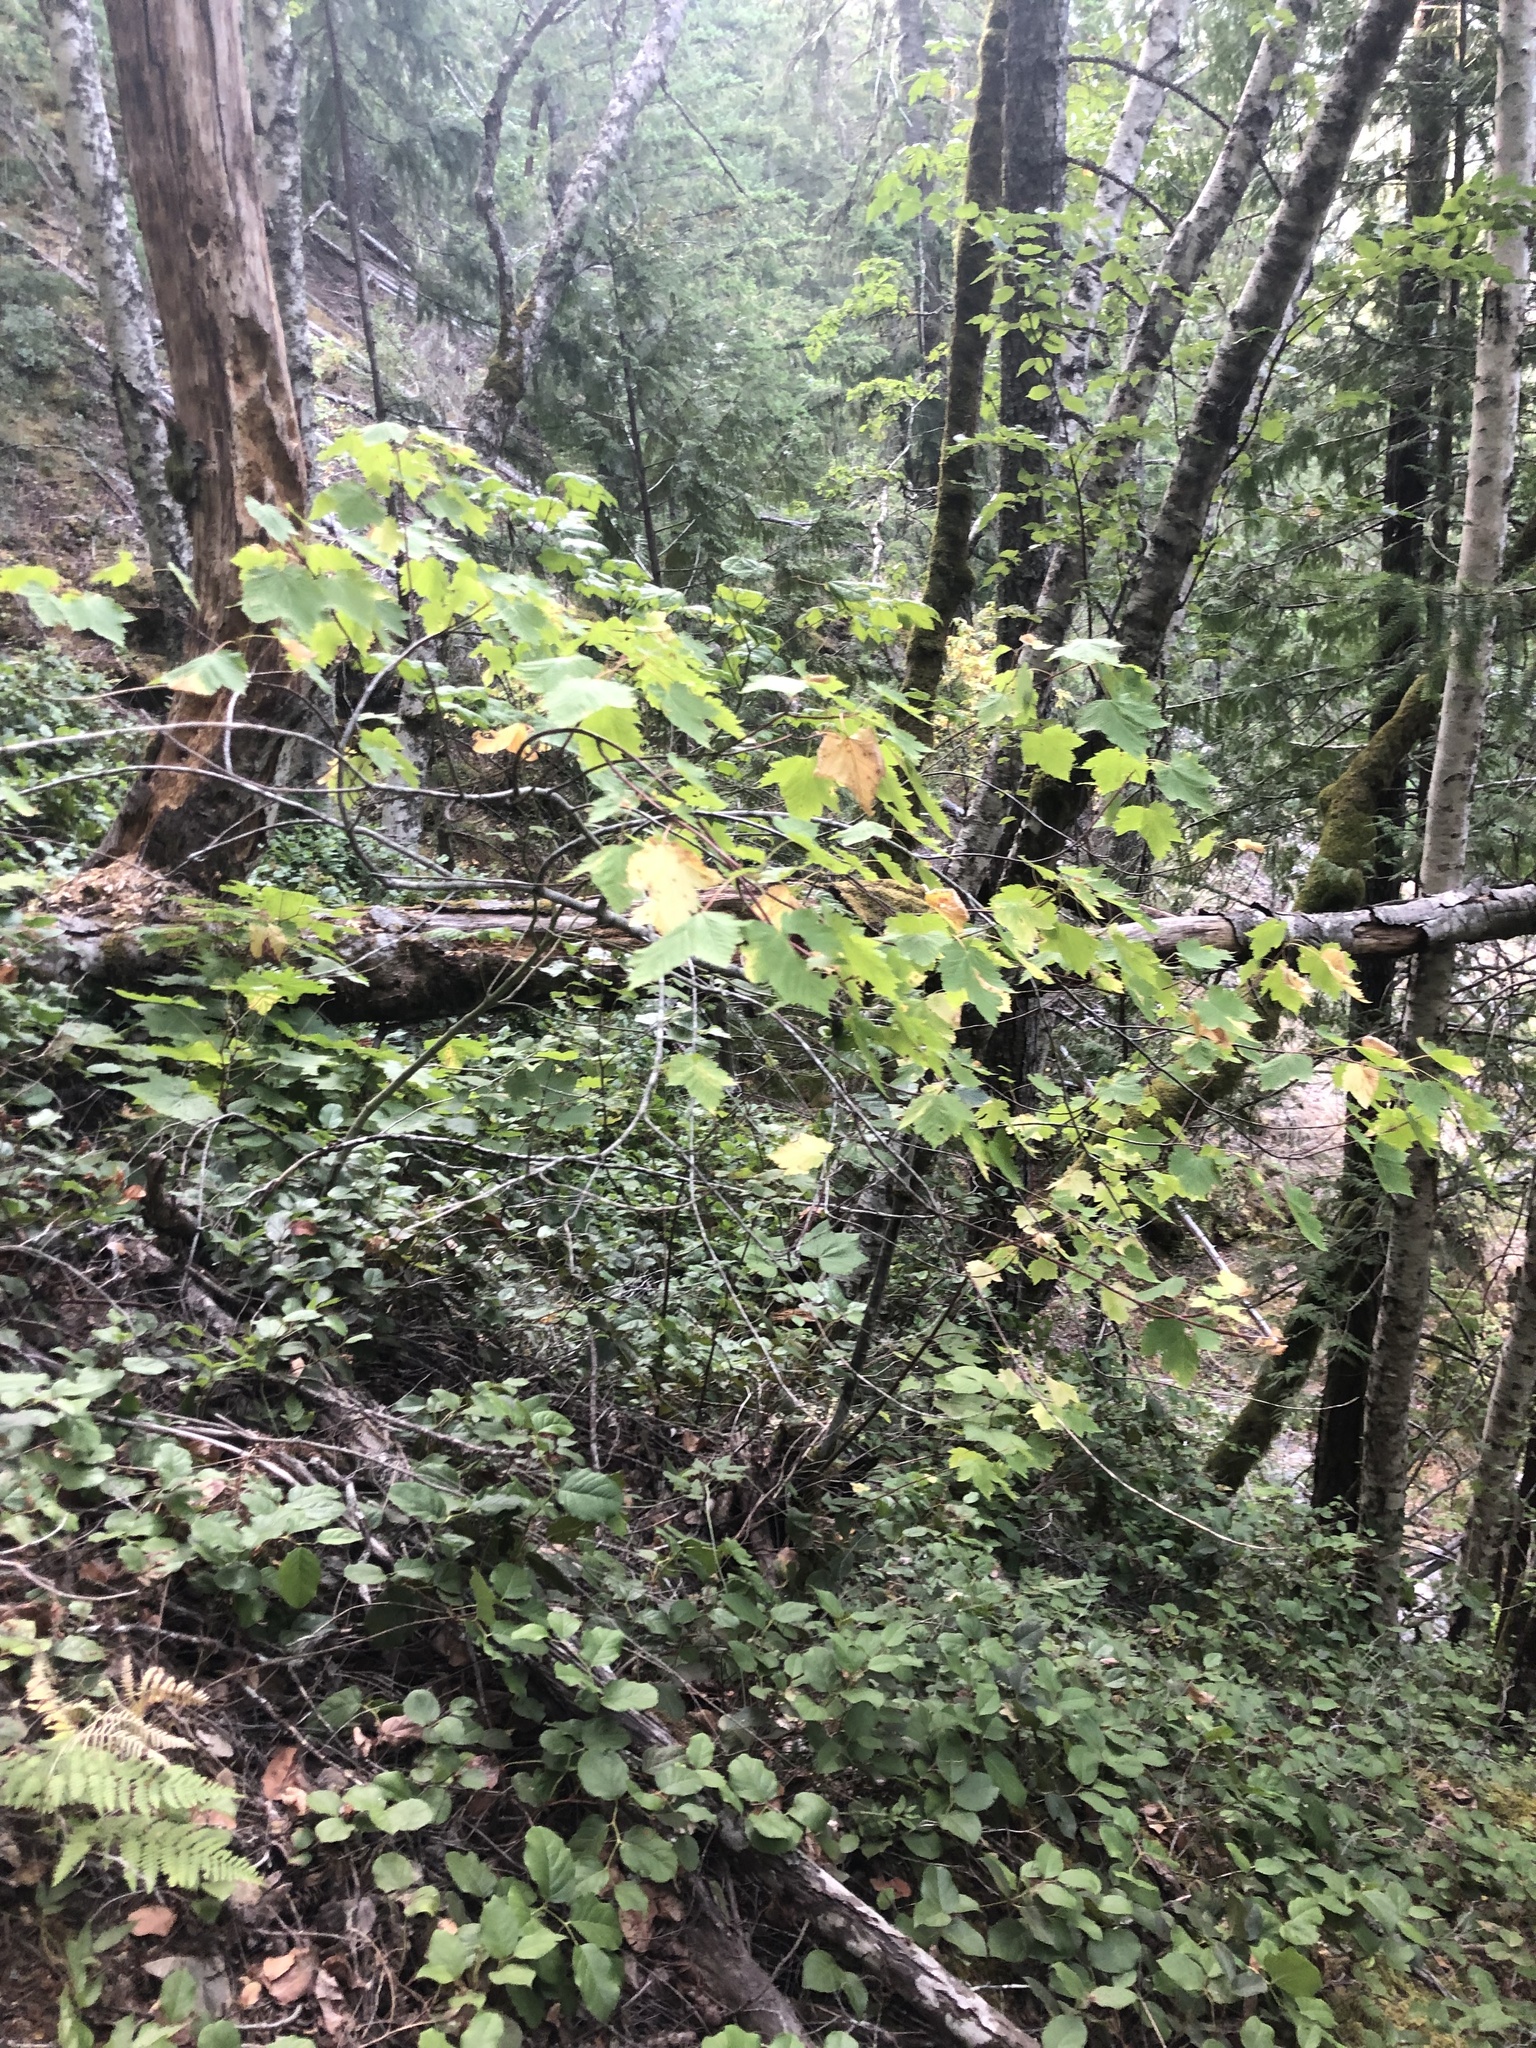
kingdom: Plantae
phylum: Tracheophyta
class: Magnoliopsida
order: Sapindales
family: Sapindaceae
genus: Acer
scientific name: Acer glabrum
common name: Rocky mountain maple
